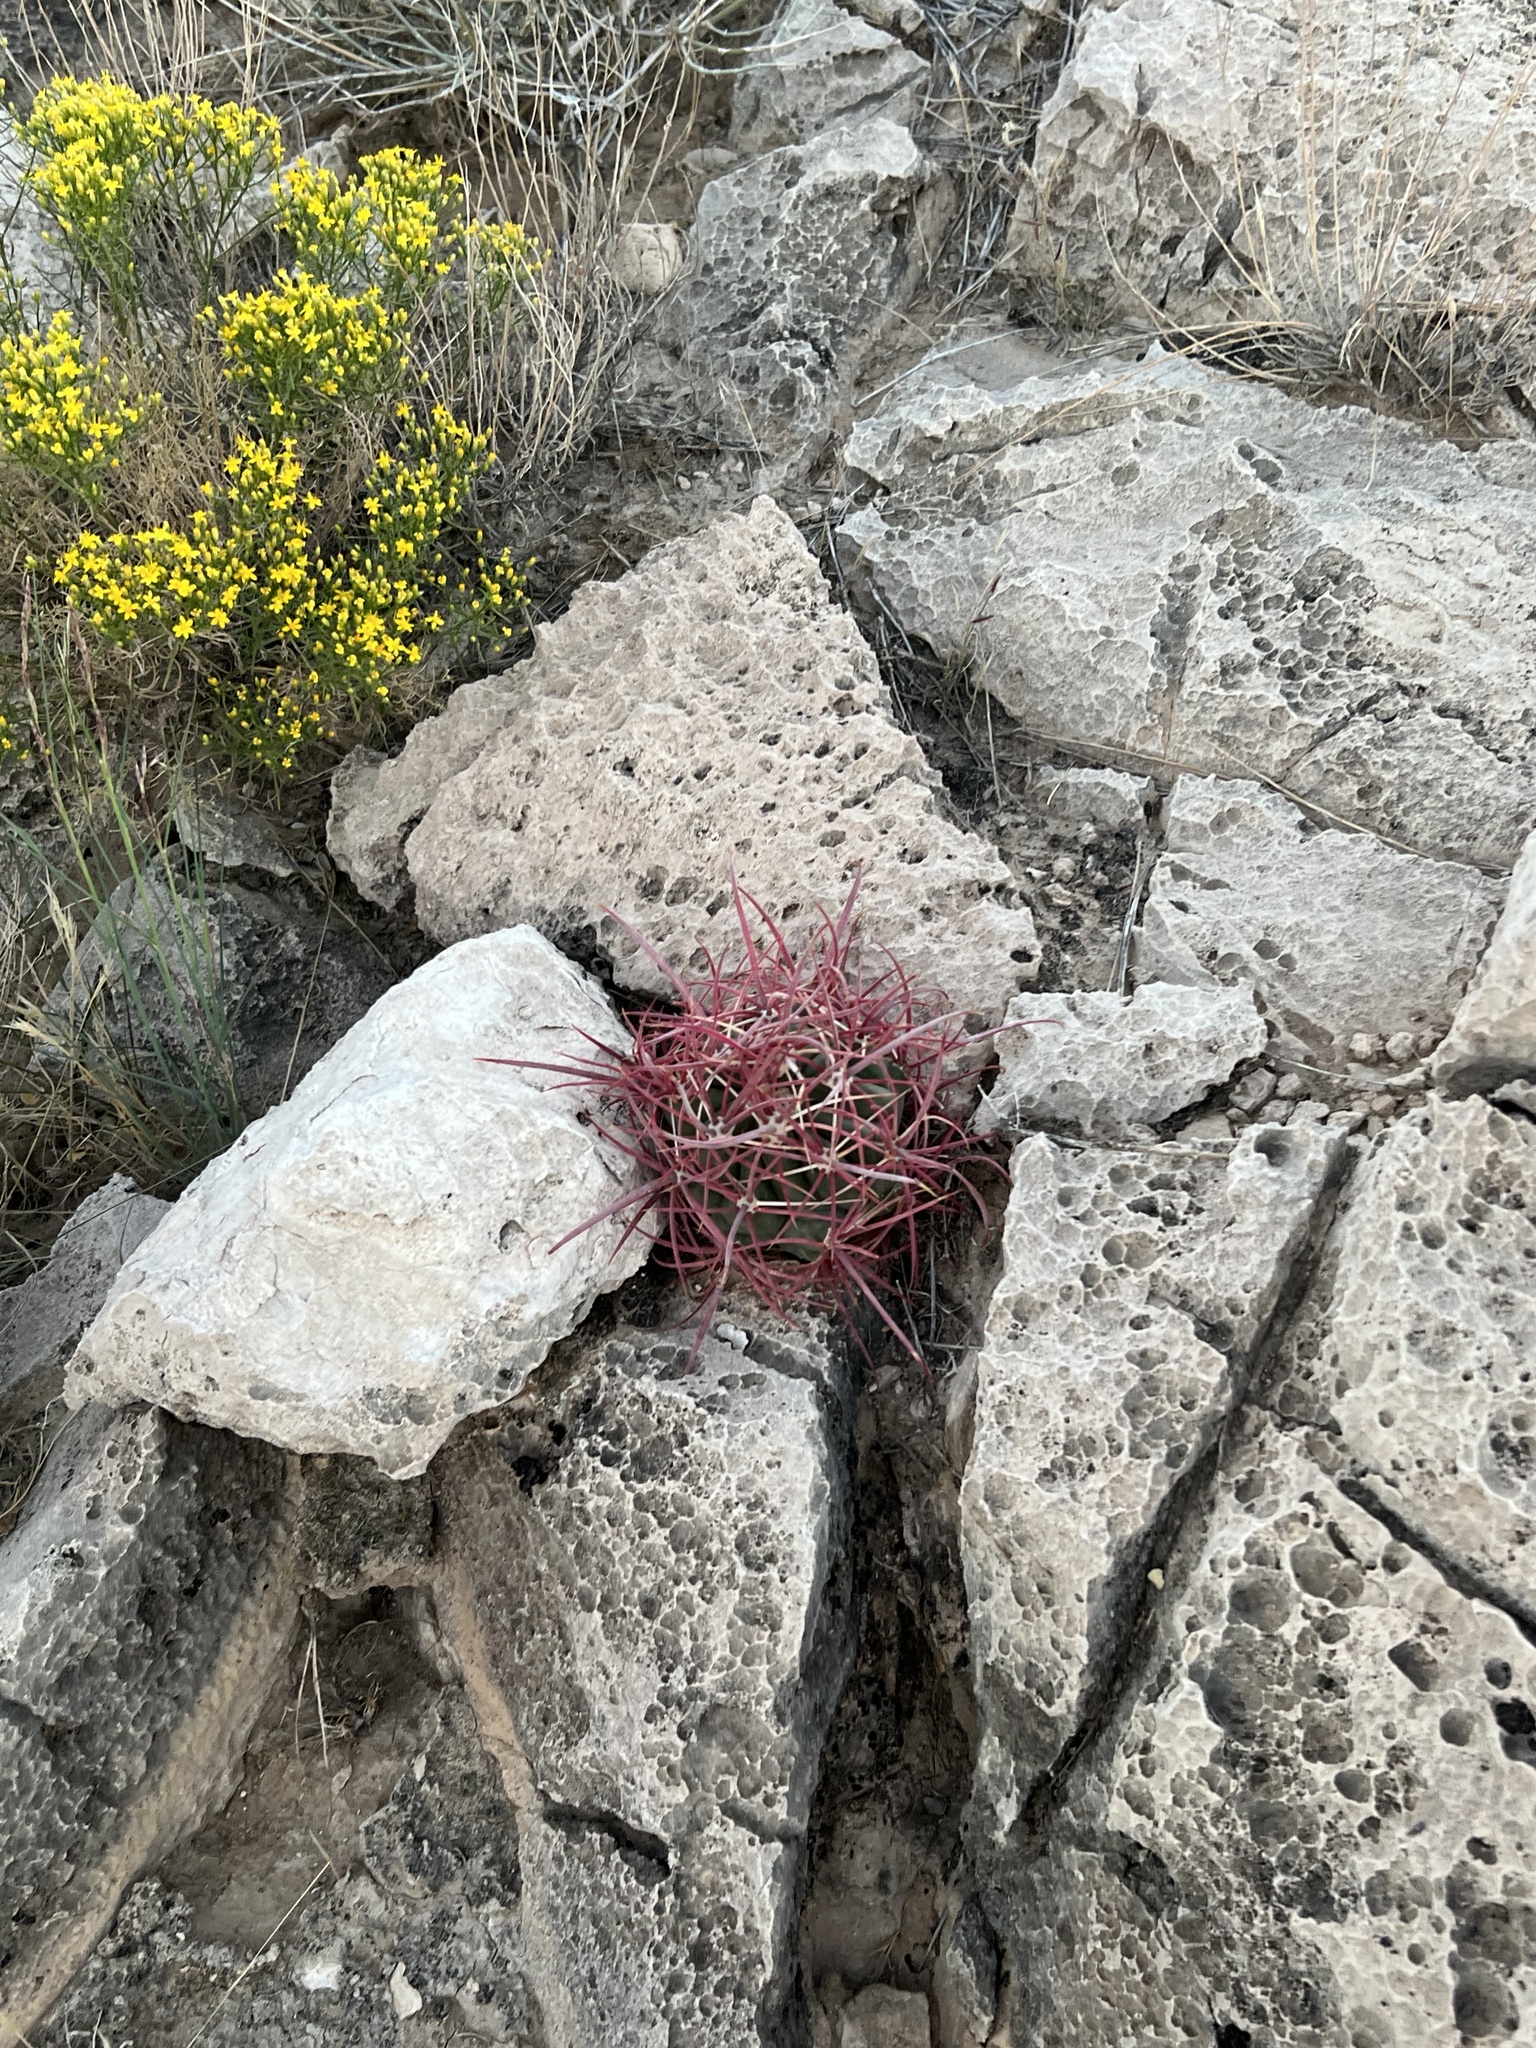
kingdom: Plantae
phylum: Tracheophyta
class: Magnoliopsida
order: Caryophyllales
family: Cactaceae
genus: Ferocactus
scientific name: Ferocactus cylindraceus
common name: California barrel cactus
